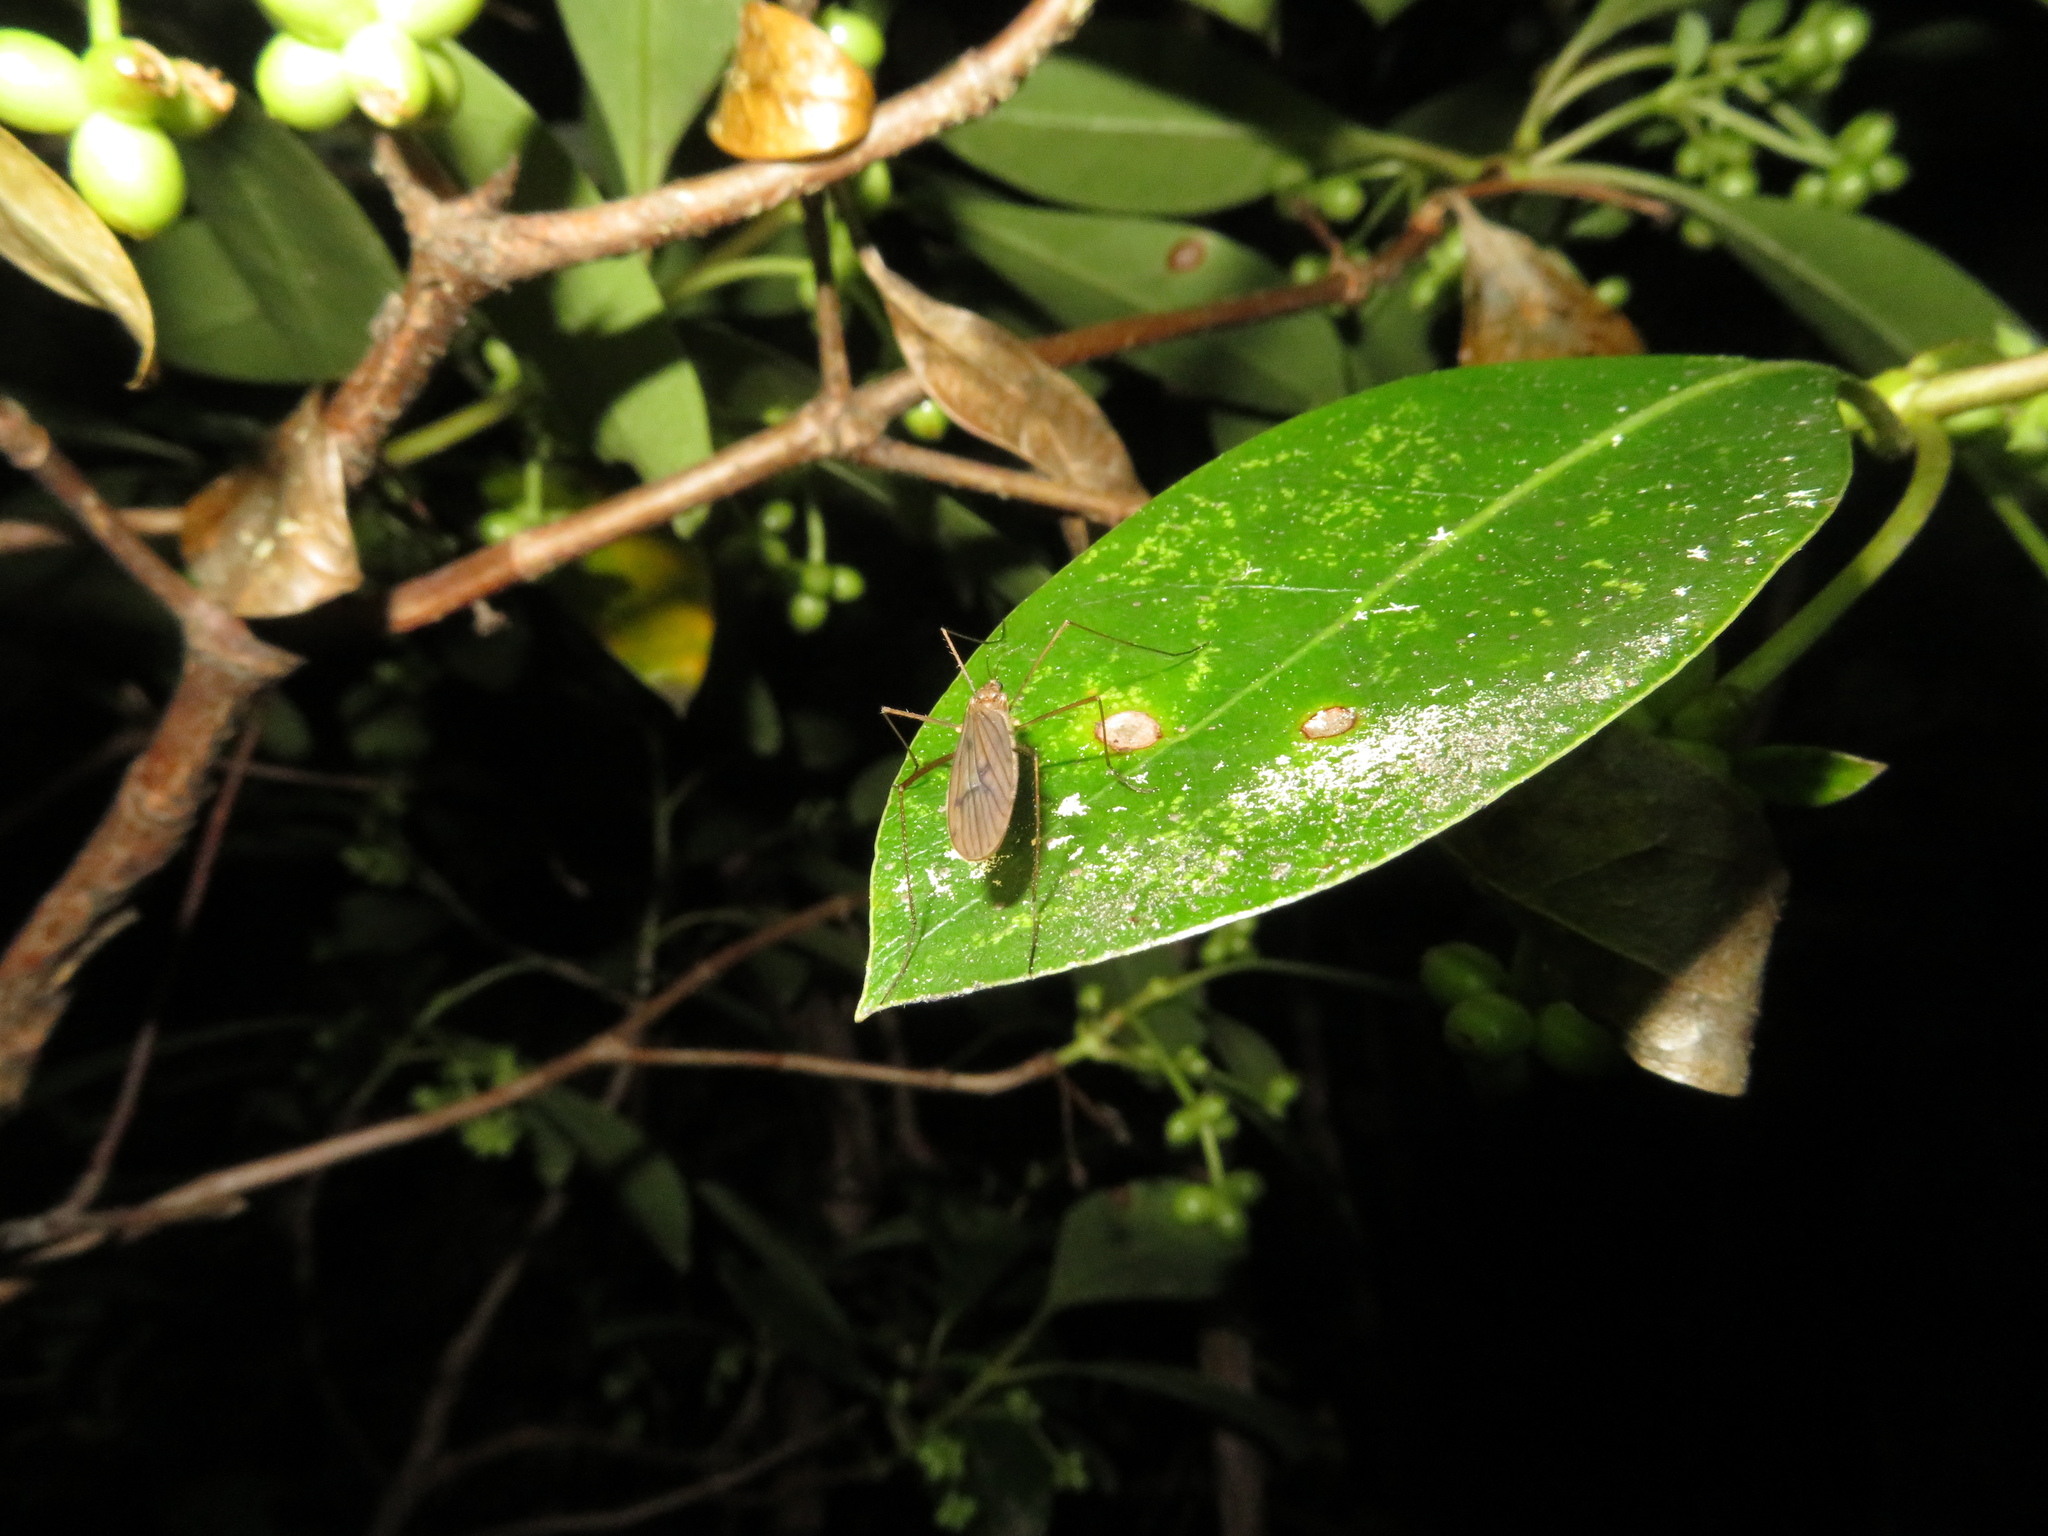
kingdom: Animalia
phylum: Arthropoda
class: Insecta
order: Diptera
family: Limoniidae
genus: Amphineurus
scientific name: Amphineurus insulsus
